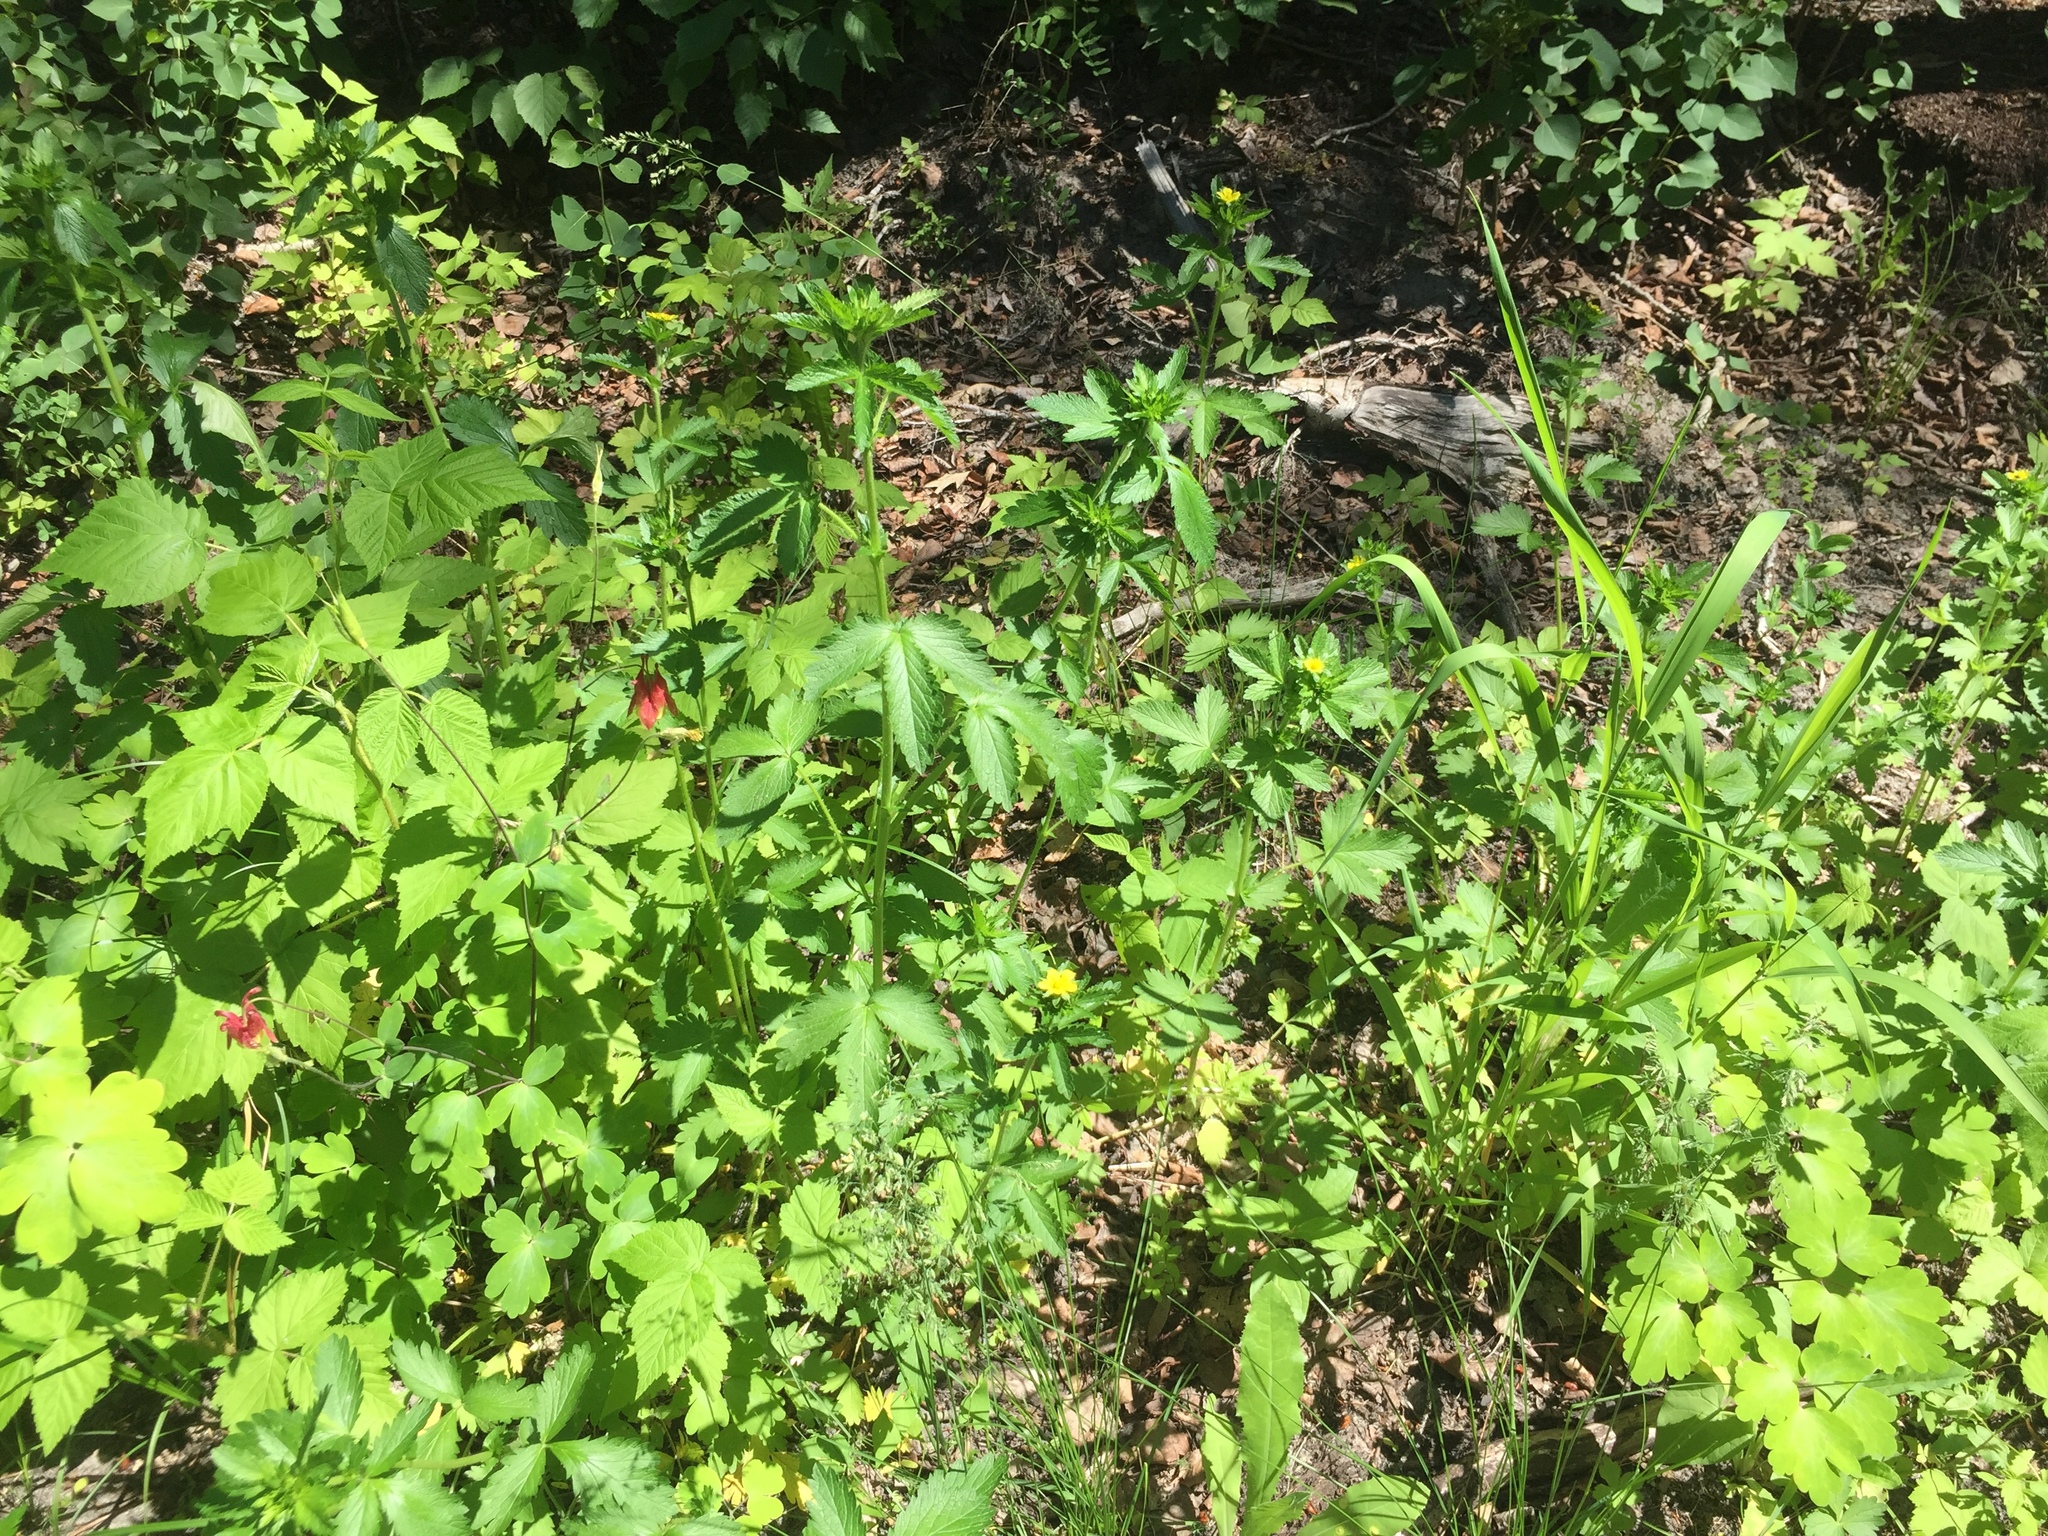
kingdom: Plantae
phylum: Tracheophyta
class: Magnoliopsida
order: Rosales
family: Rosaceae
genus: Potentilla
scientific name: Potentilla norvegica
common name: Ternate-leaved cinquefoil
